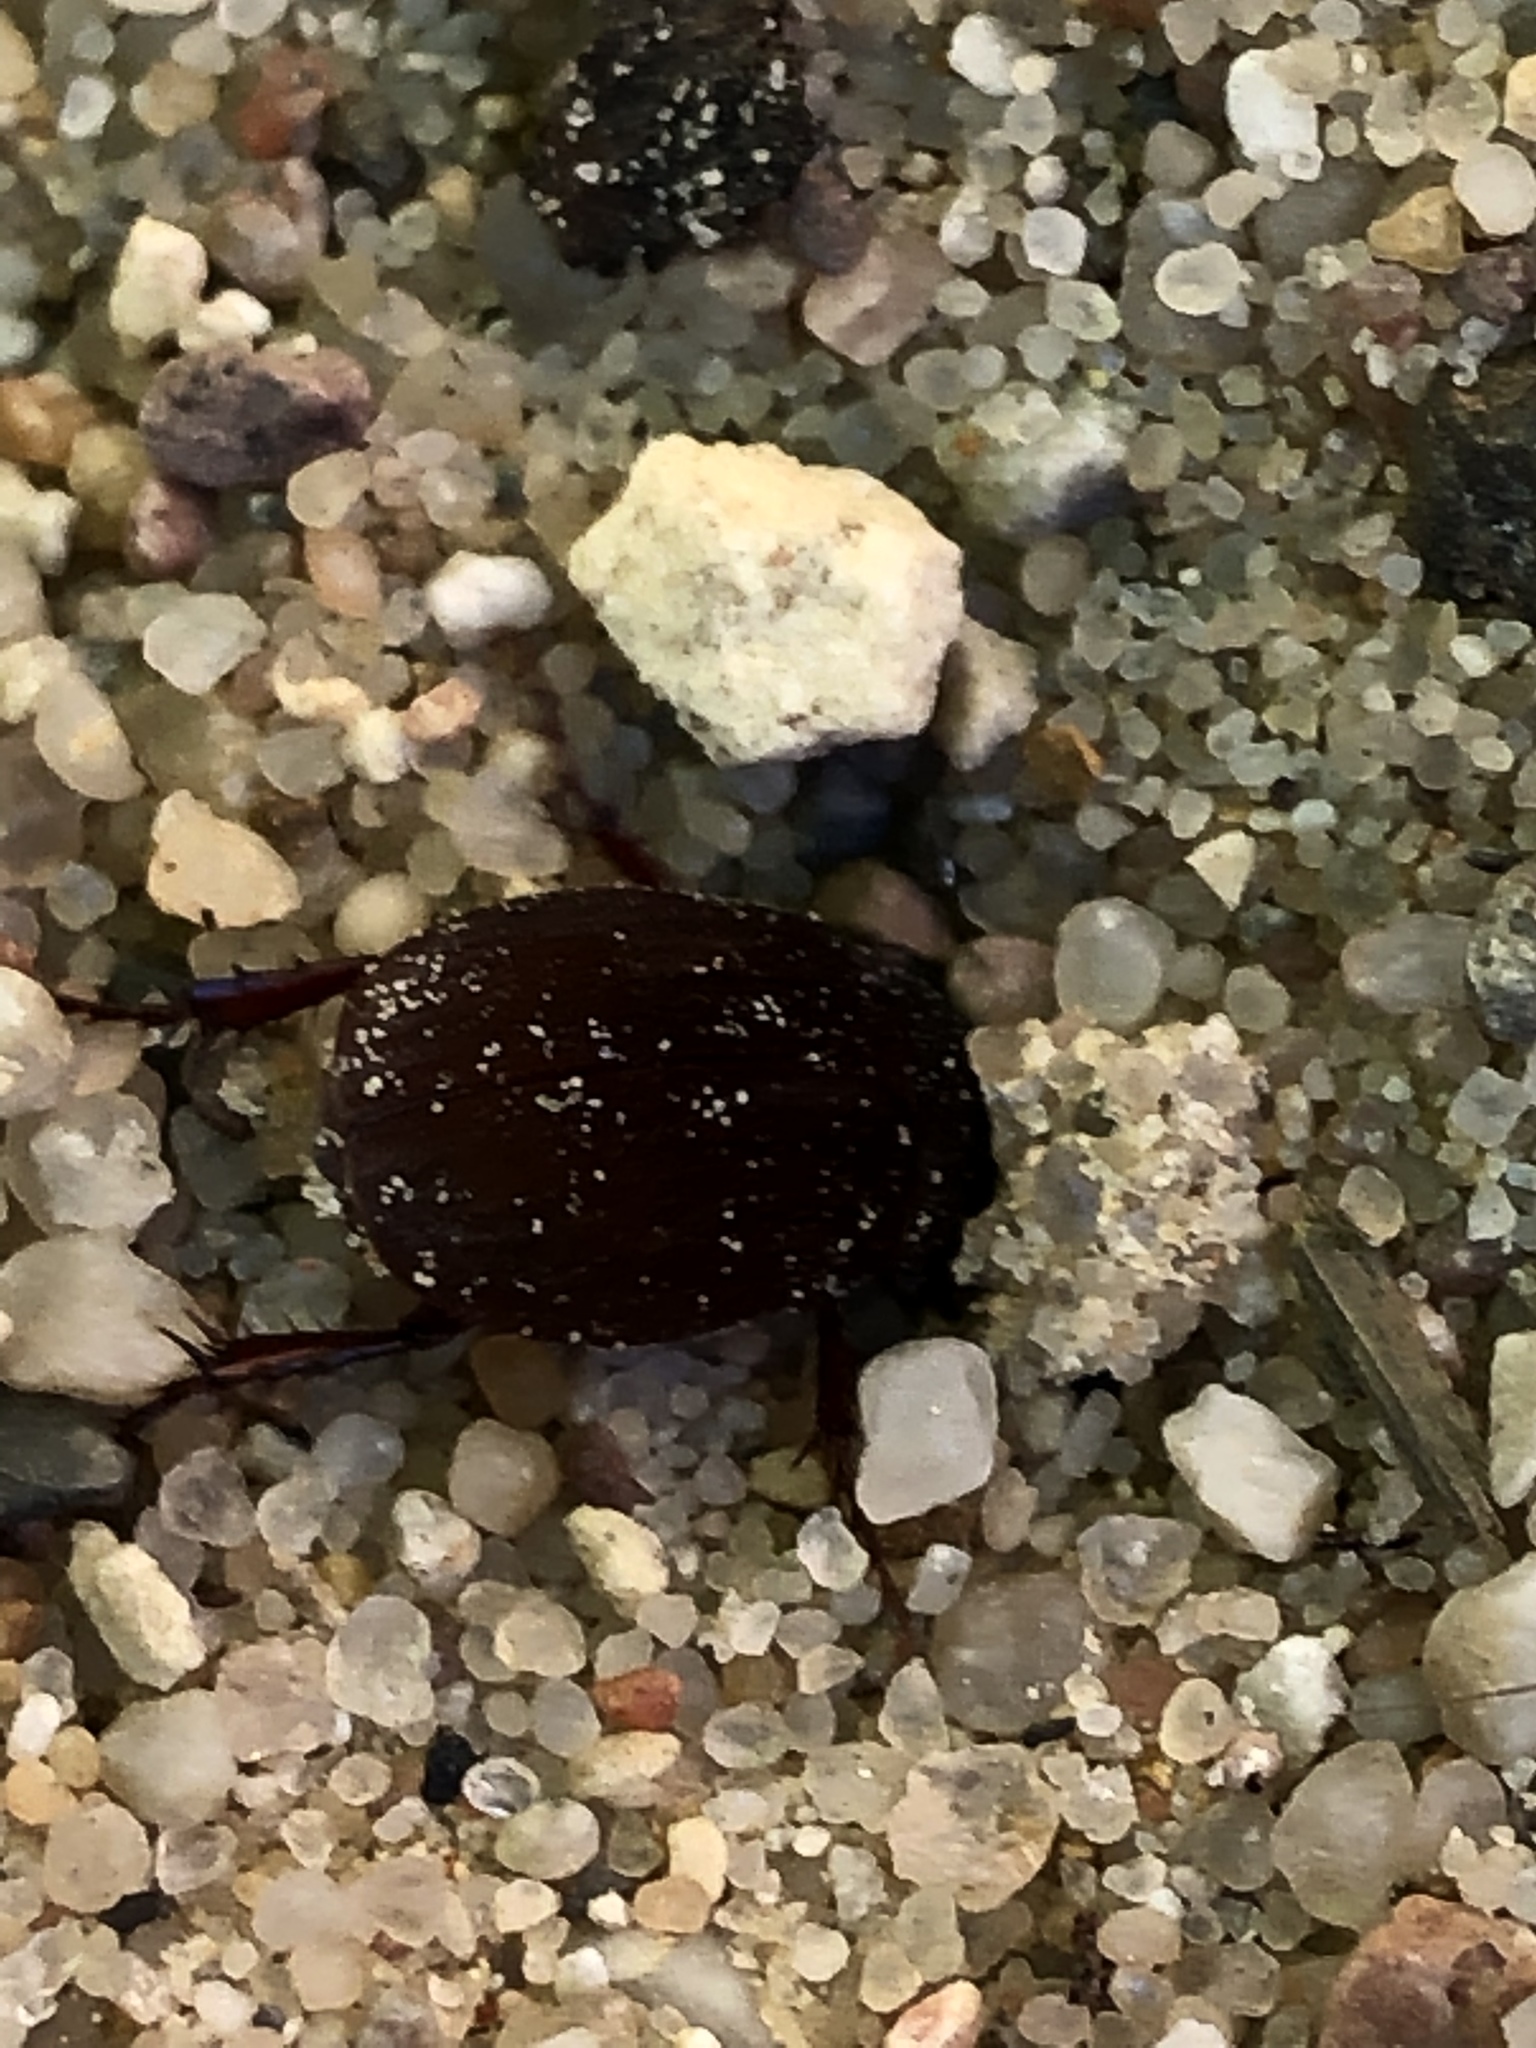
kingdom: Animalia
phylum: Arthropoda
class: Insecta
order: Coleoptera
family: Scarabaeidae
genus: Maladera
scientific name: Maladera holosericea
